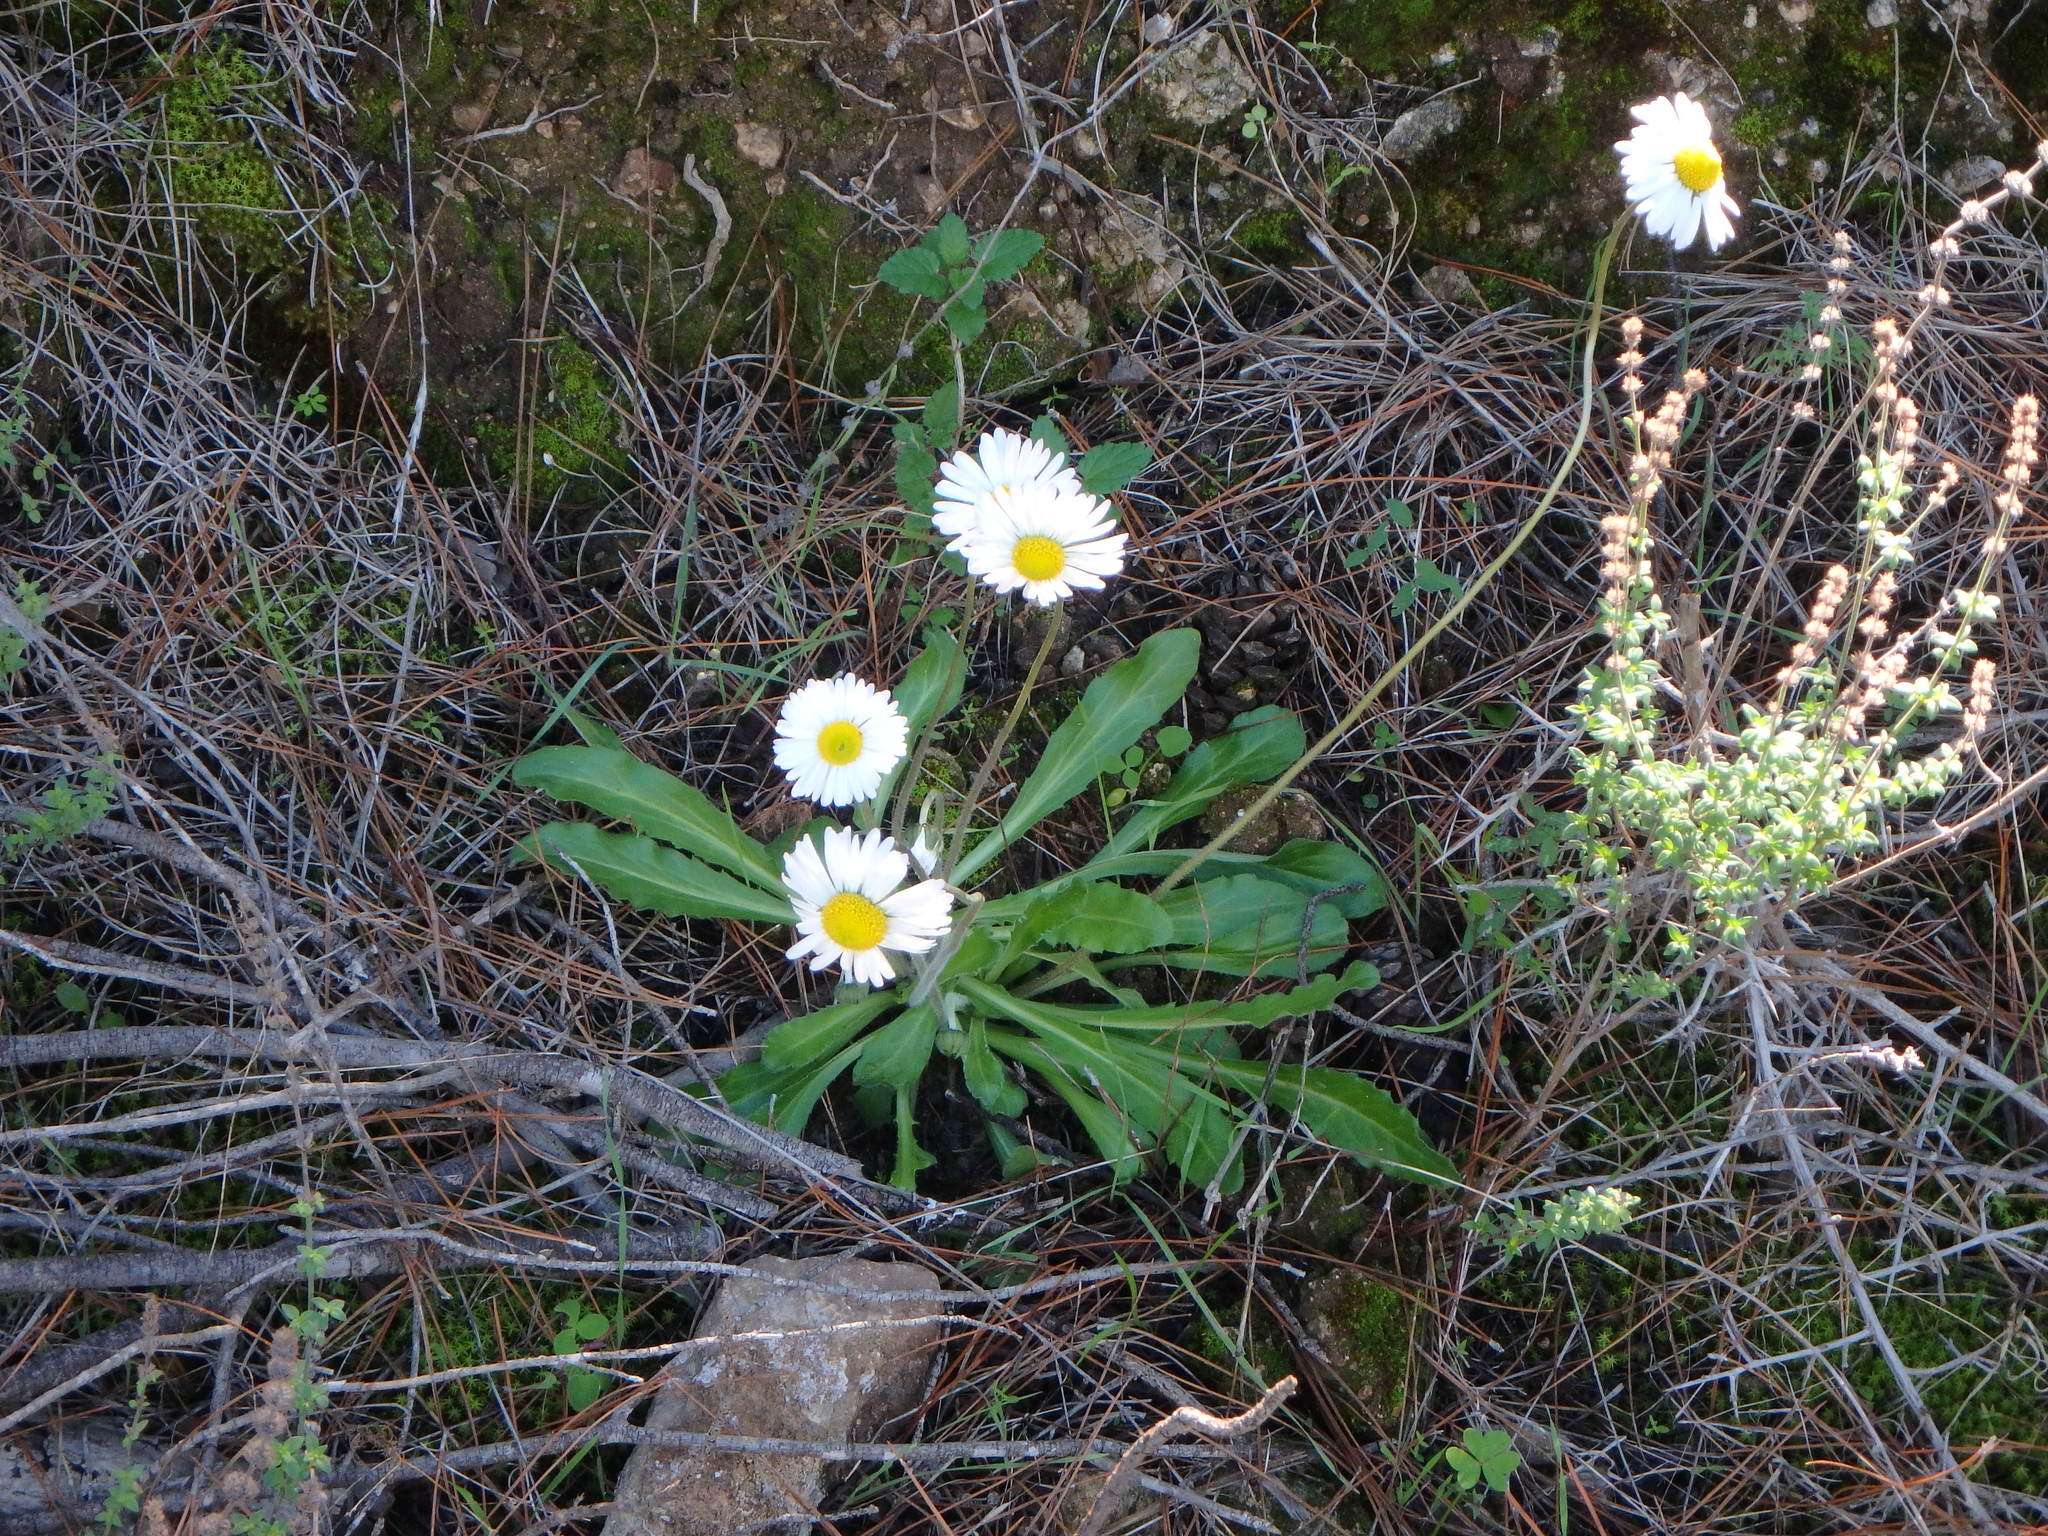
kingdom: Plantae
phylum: Tracheophyta
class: Magnoliopsida
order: Asterales
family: Asteraceae
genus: Bellis
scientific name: Bellis sylvestris
